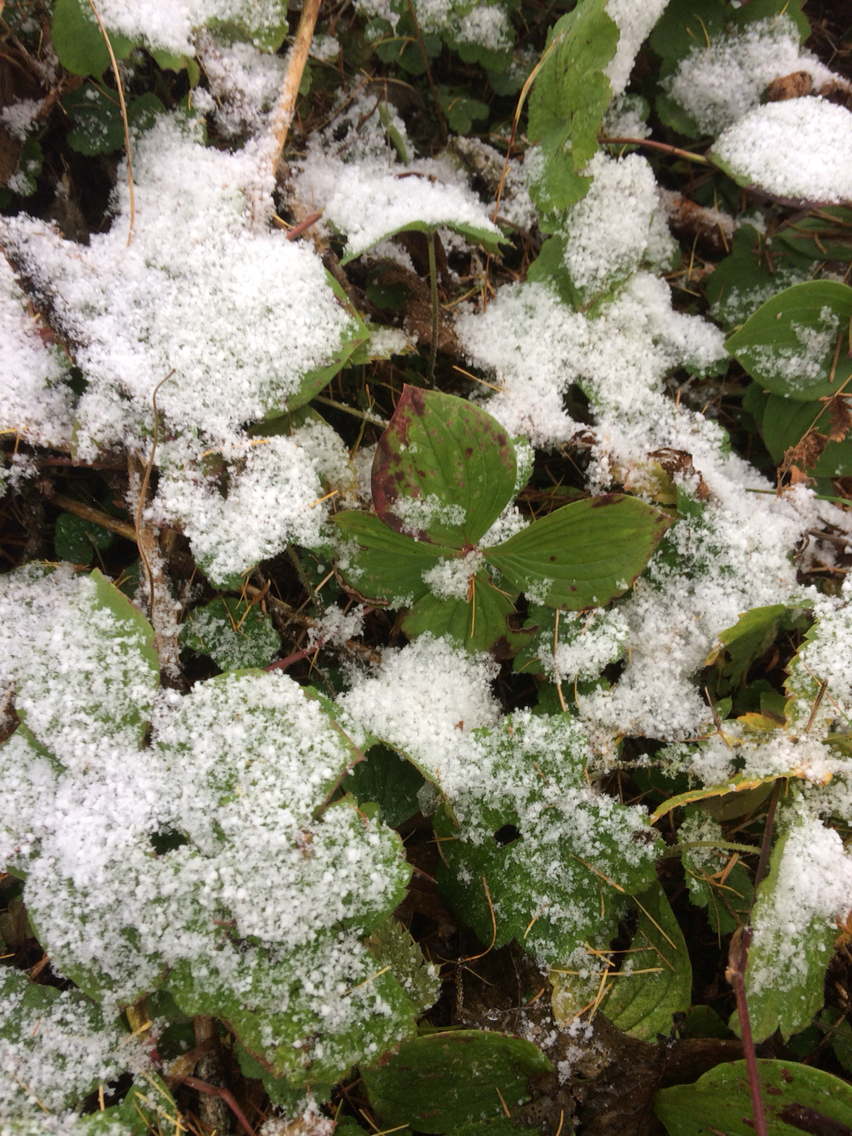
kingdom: Plantae
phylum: Tracheophyta
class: Magnoliopsida
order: Cornales
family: Cornaceae
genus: Cornus
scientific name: Cornus canadensis
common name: Creeping dogwood
